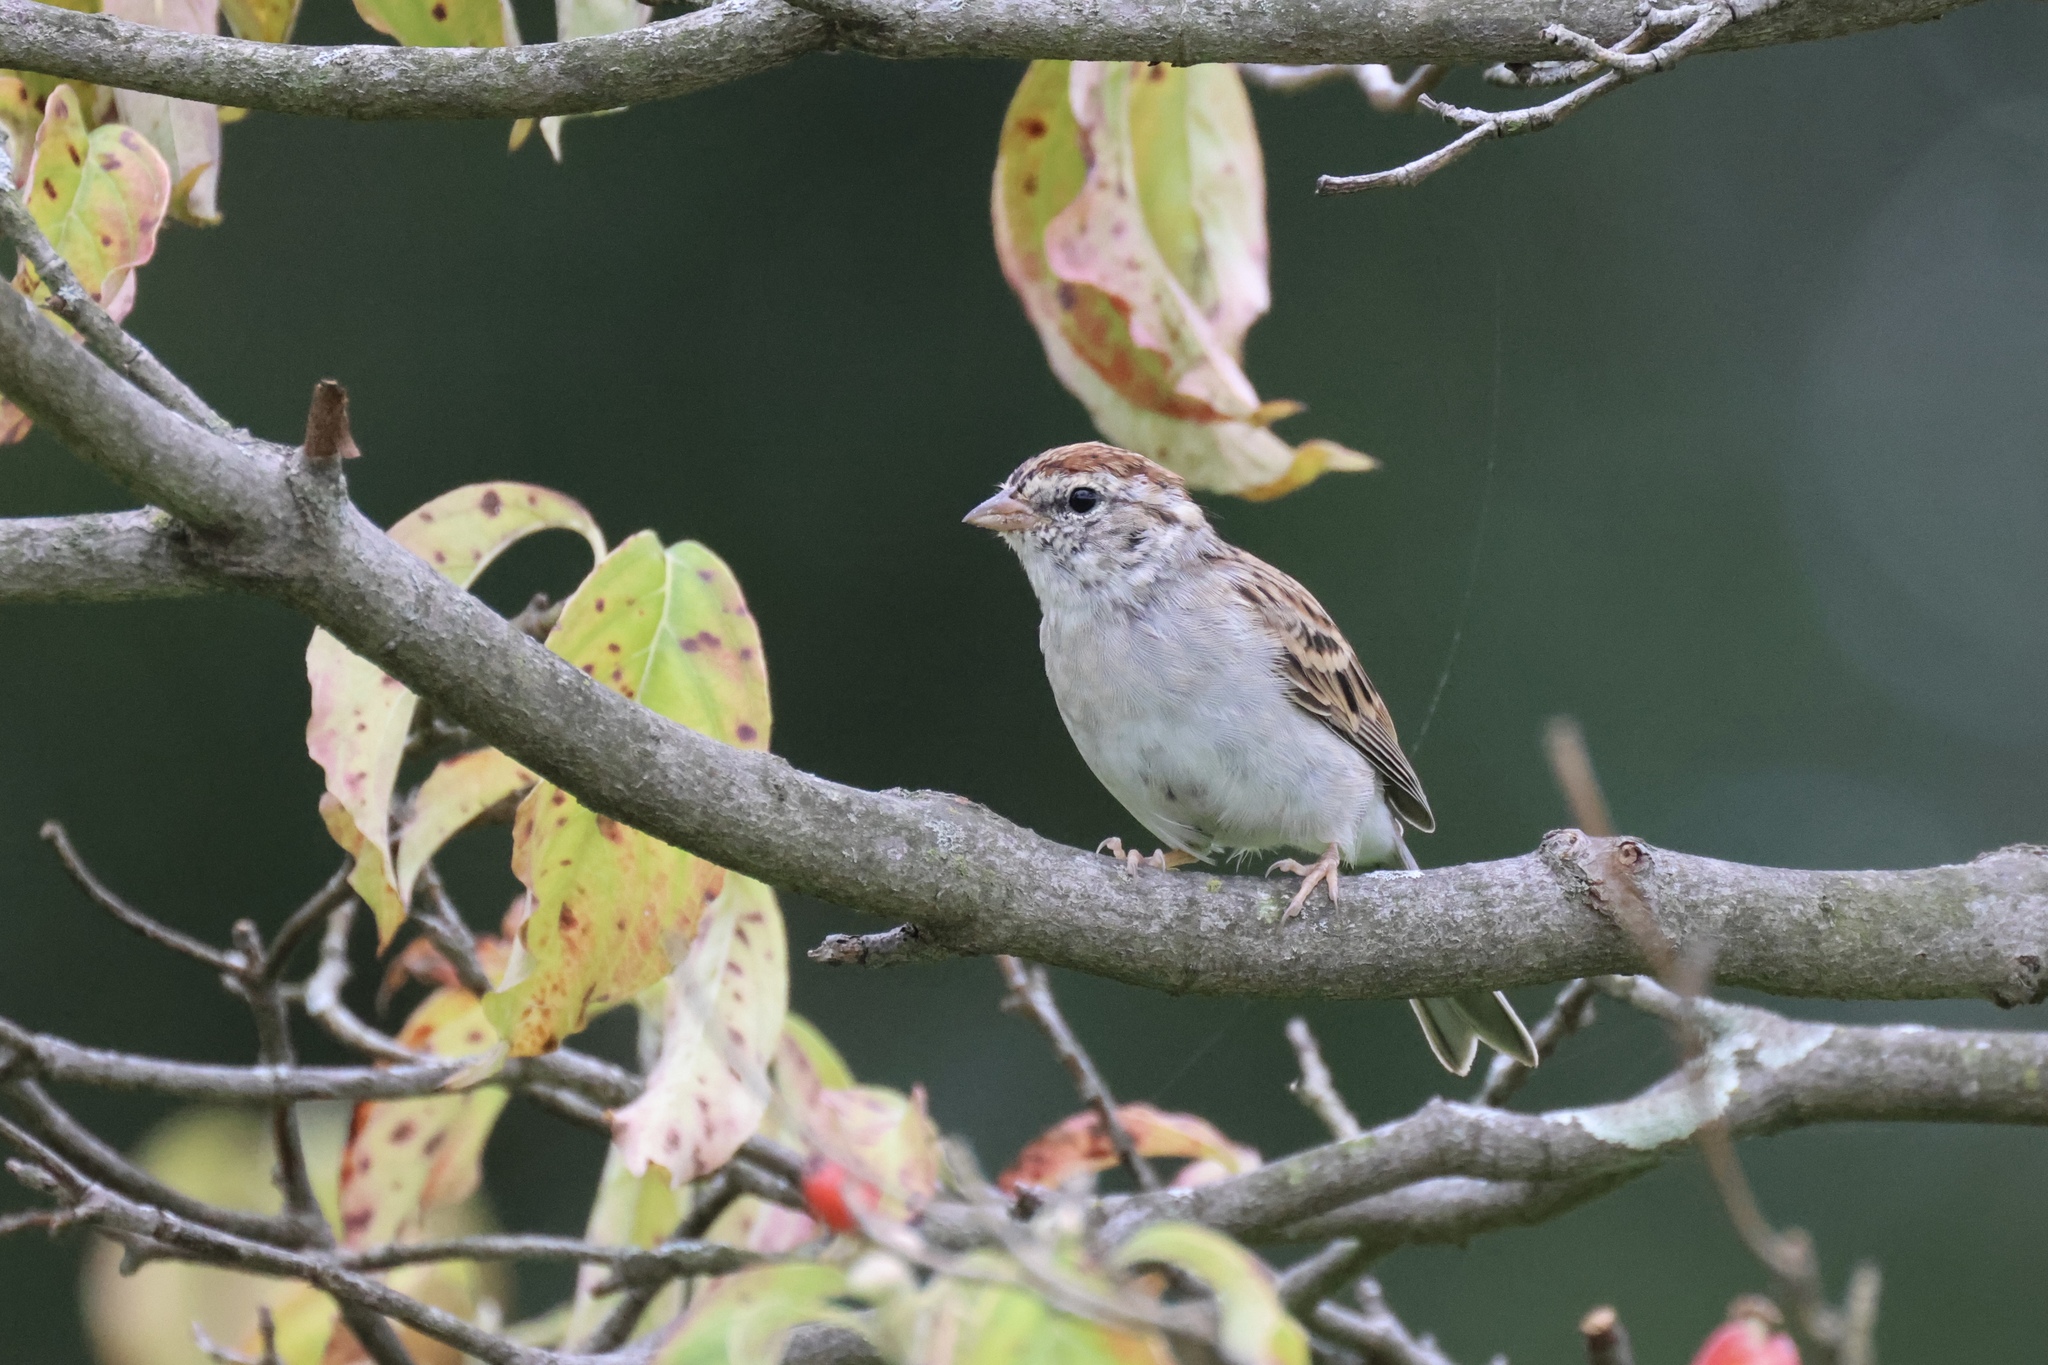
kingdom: Animalia
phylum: Chordata
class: Aves
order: Passeriformes
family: Passerellidae
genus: Spizella
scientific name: Spizella passerina
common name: Chipping sparrow
